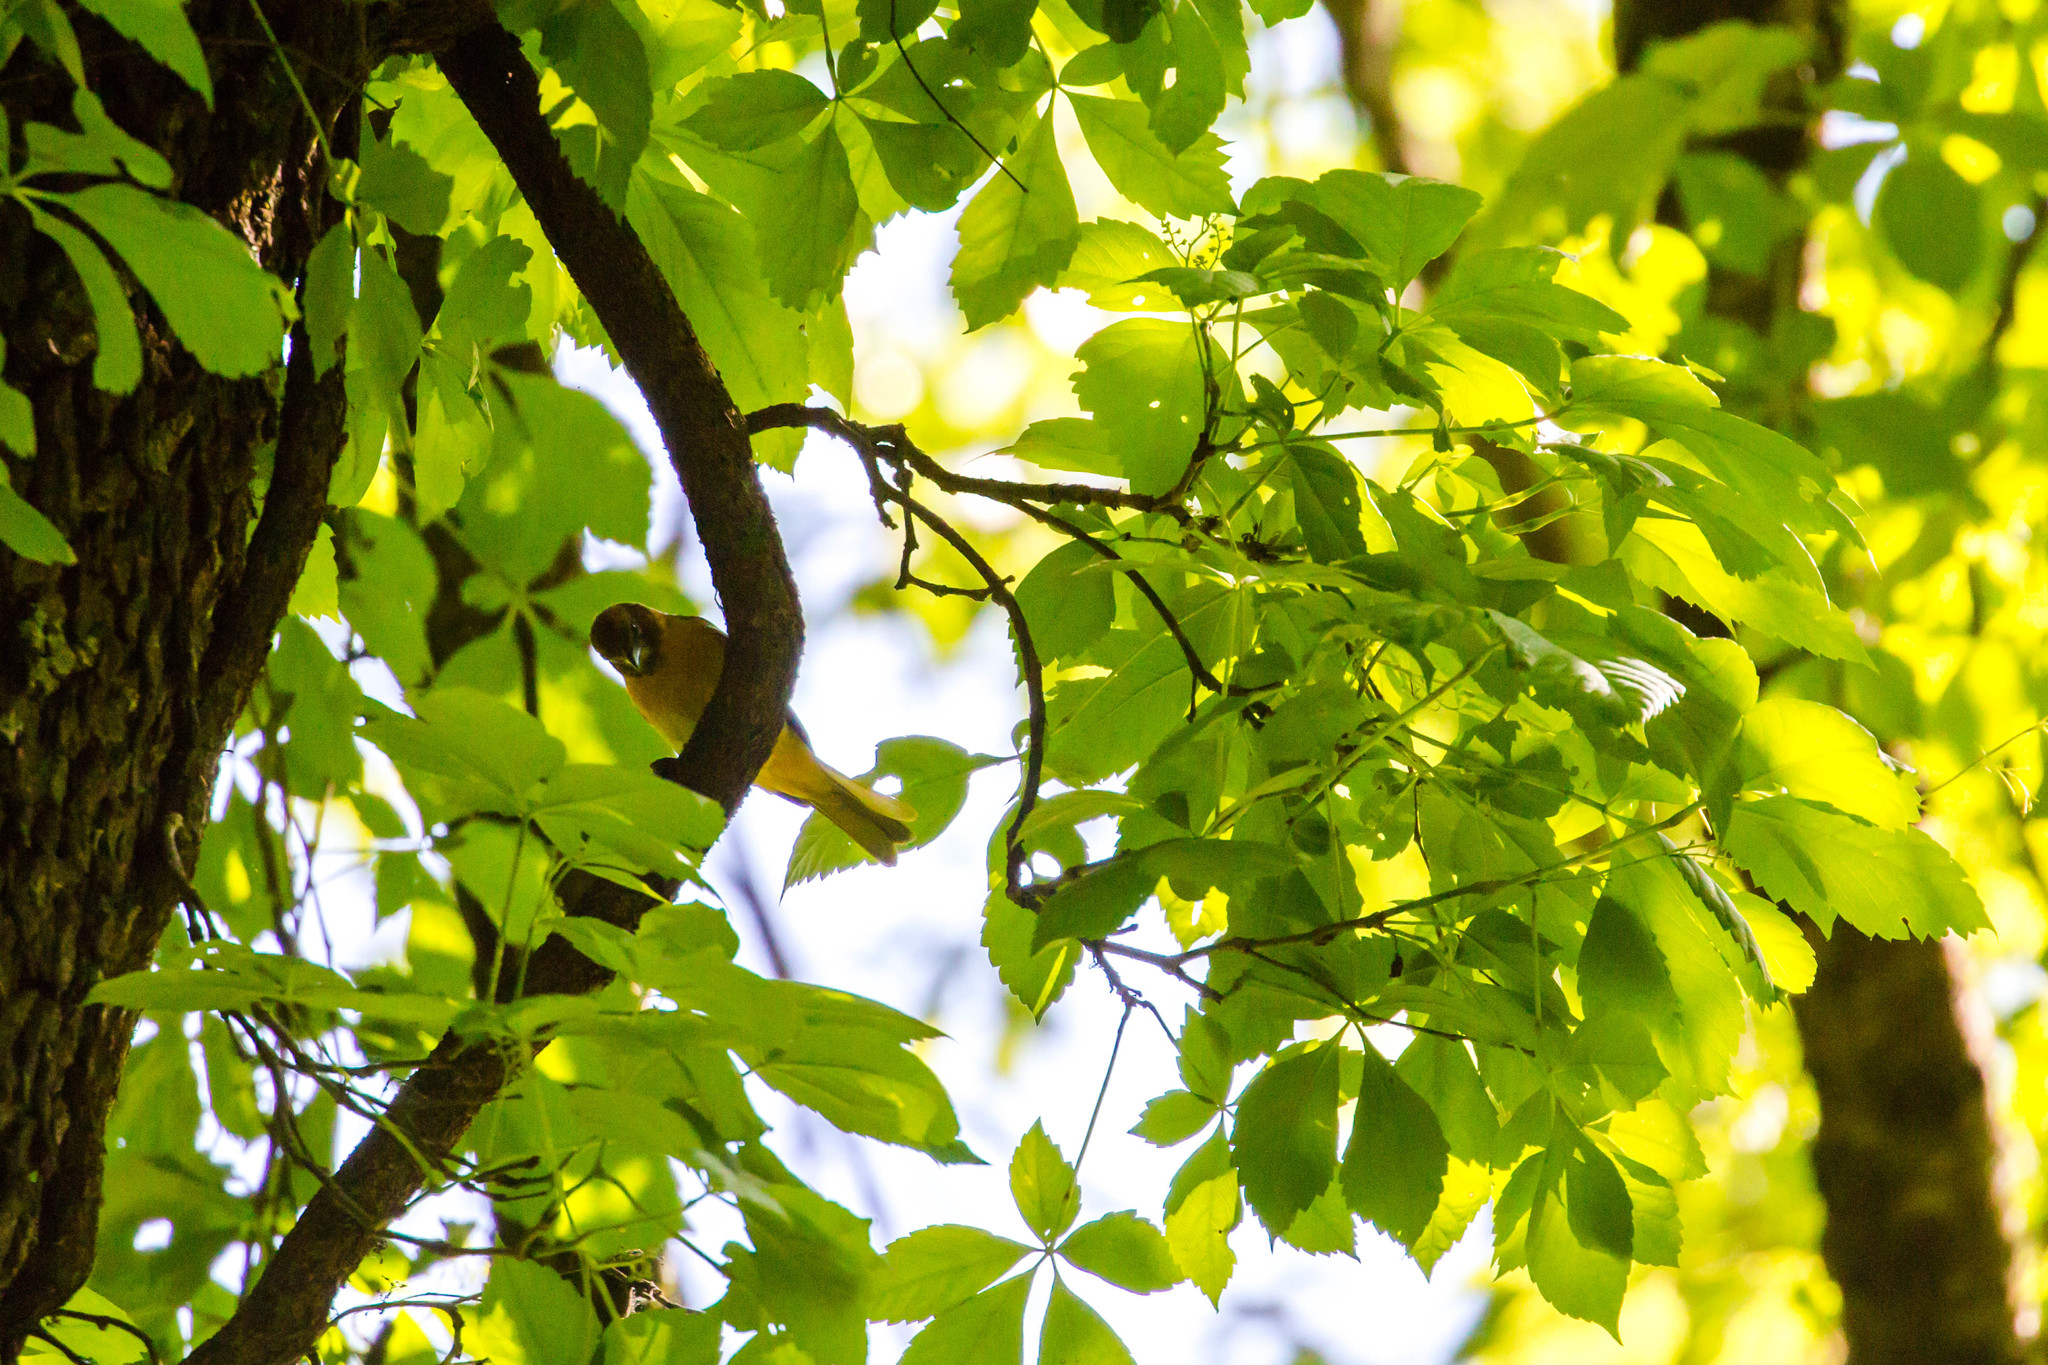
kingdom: Animalia
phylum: Chordata
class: Aves
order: Passeriformes
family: Icteridae
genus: Icterus
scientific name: Icterus galbula
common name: Baltimore oriole
